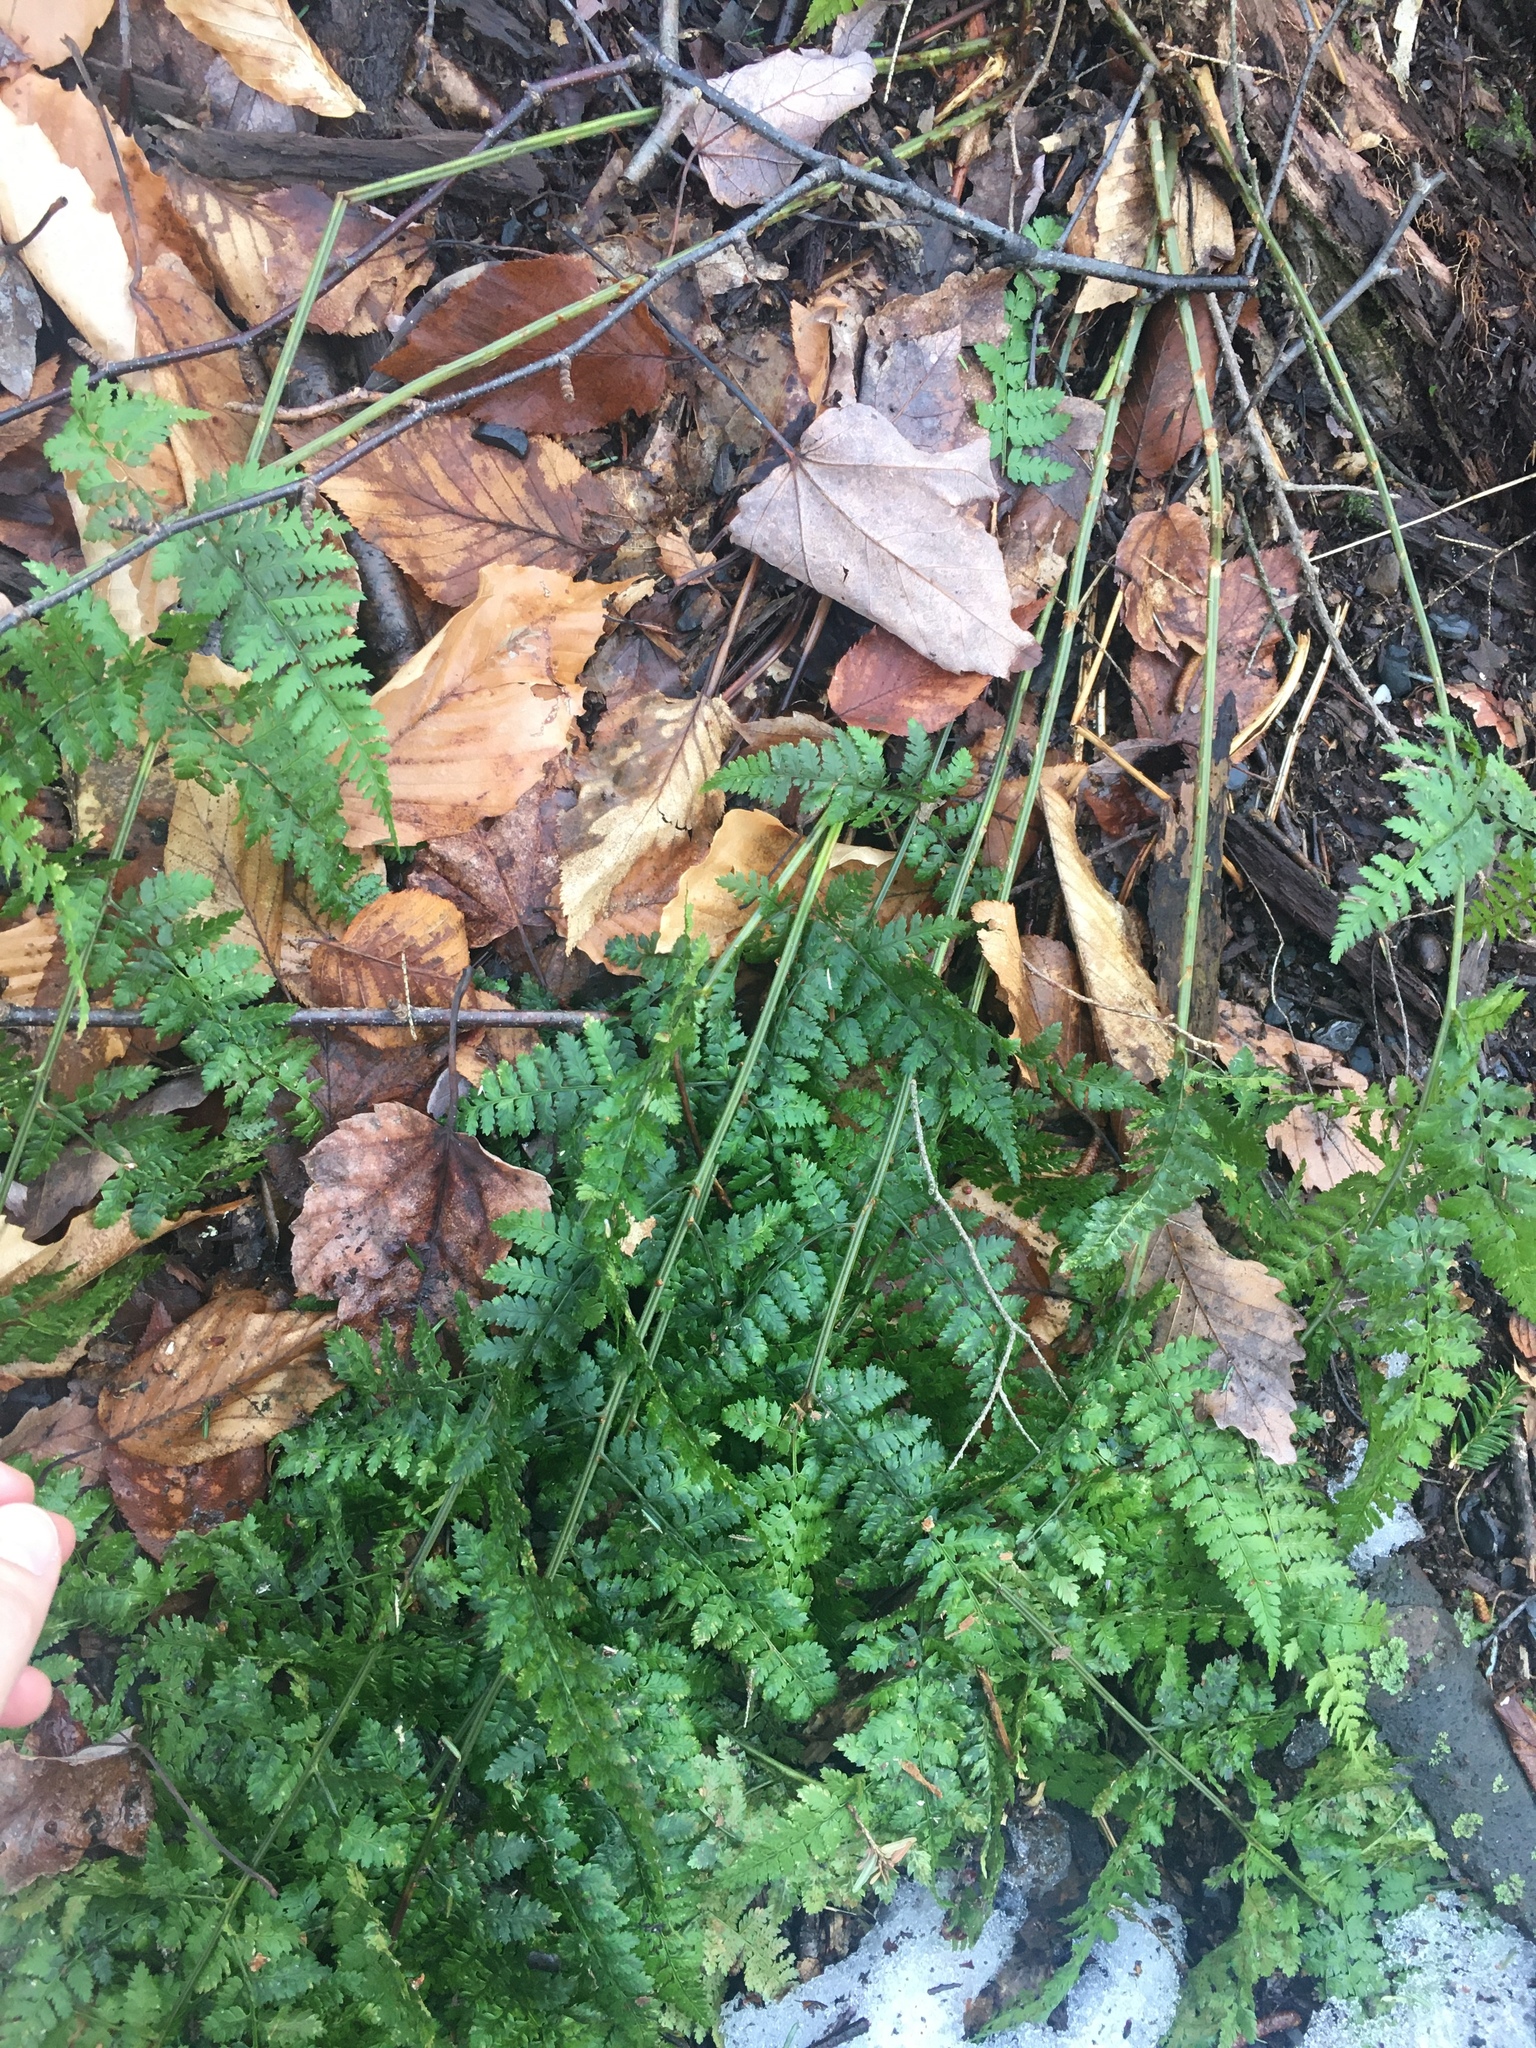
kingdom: Plantae
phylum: Tracheophyta
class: Polypodiopsida
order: Polypodiales
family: Dryopteridaceae
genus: Dryopteris
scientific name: Dryopteris intermedia
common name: Evergreen wood fern
